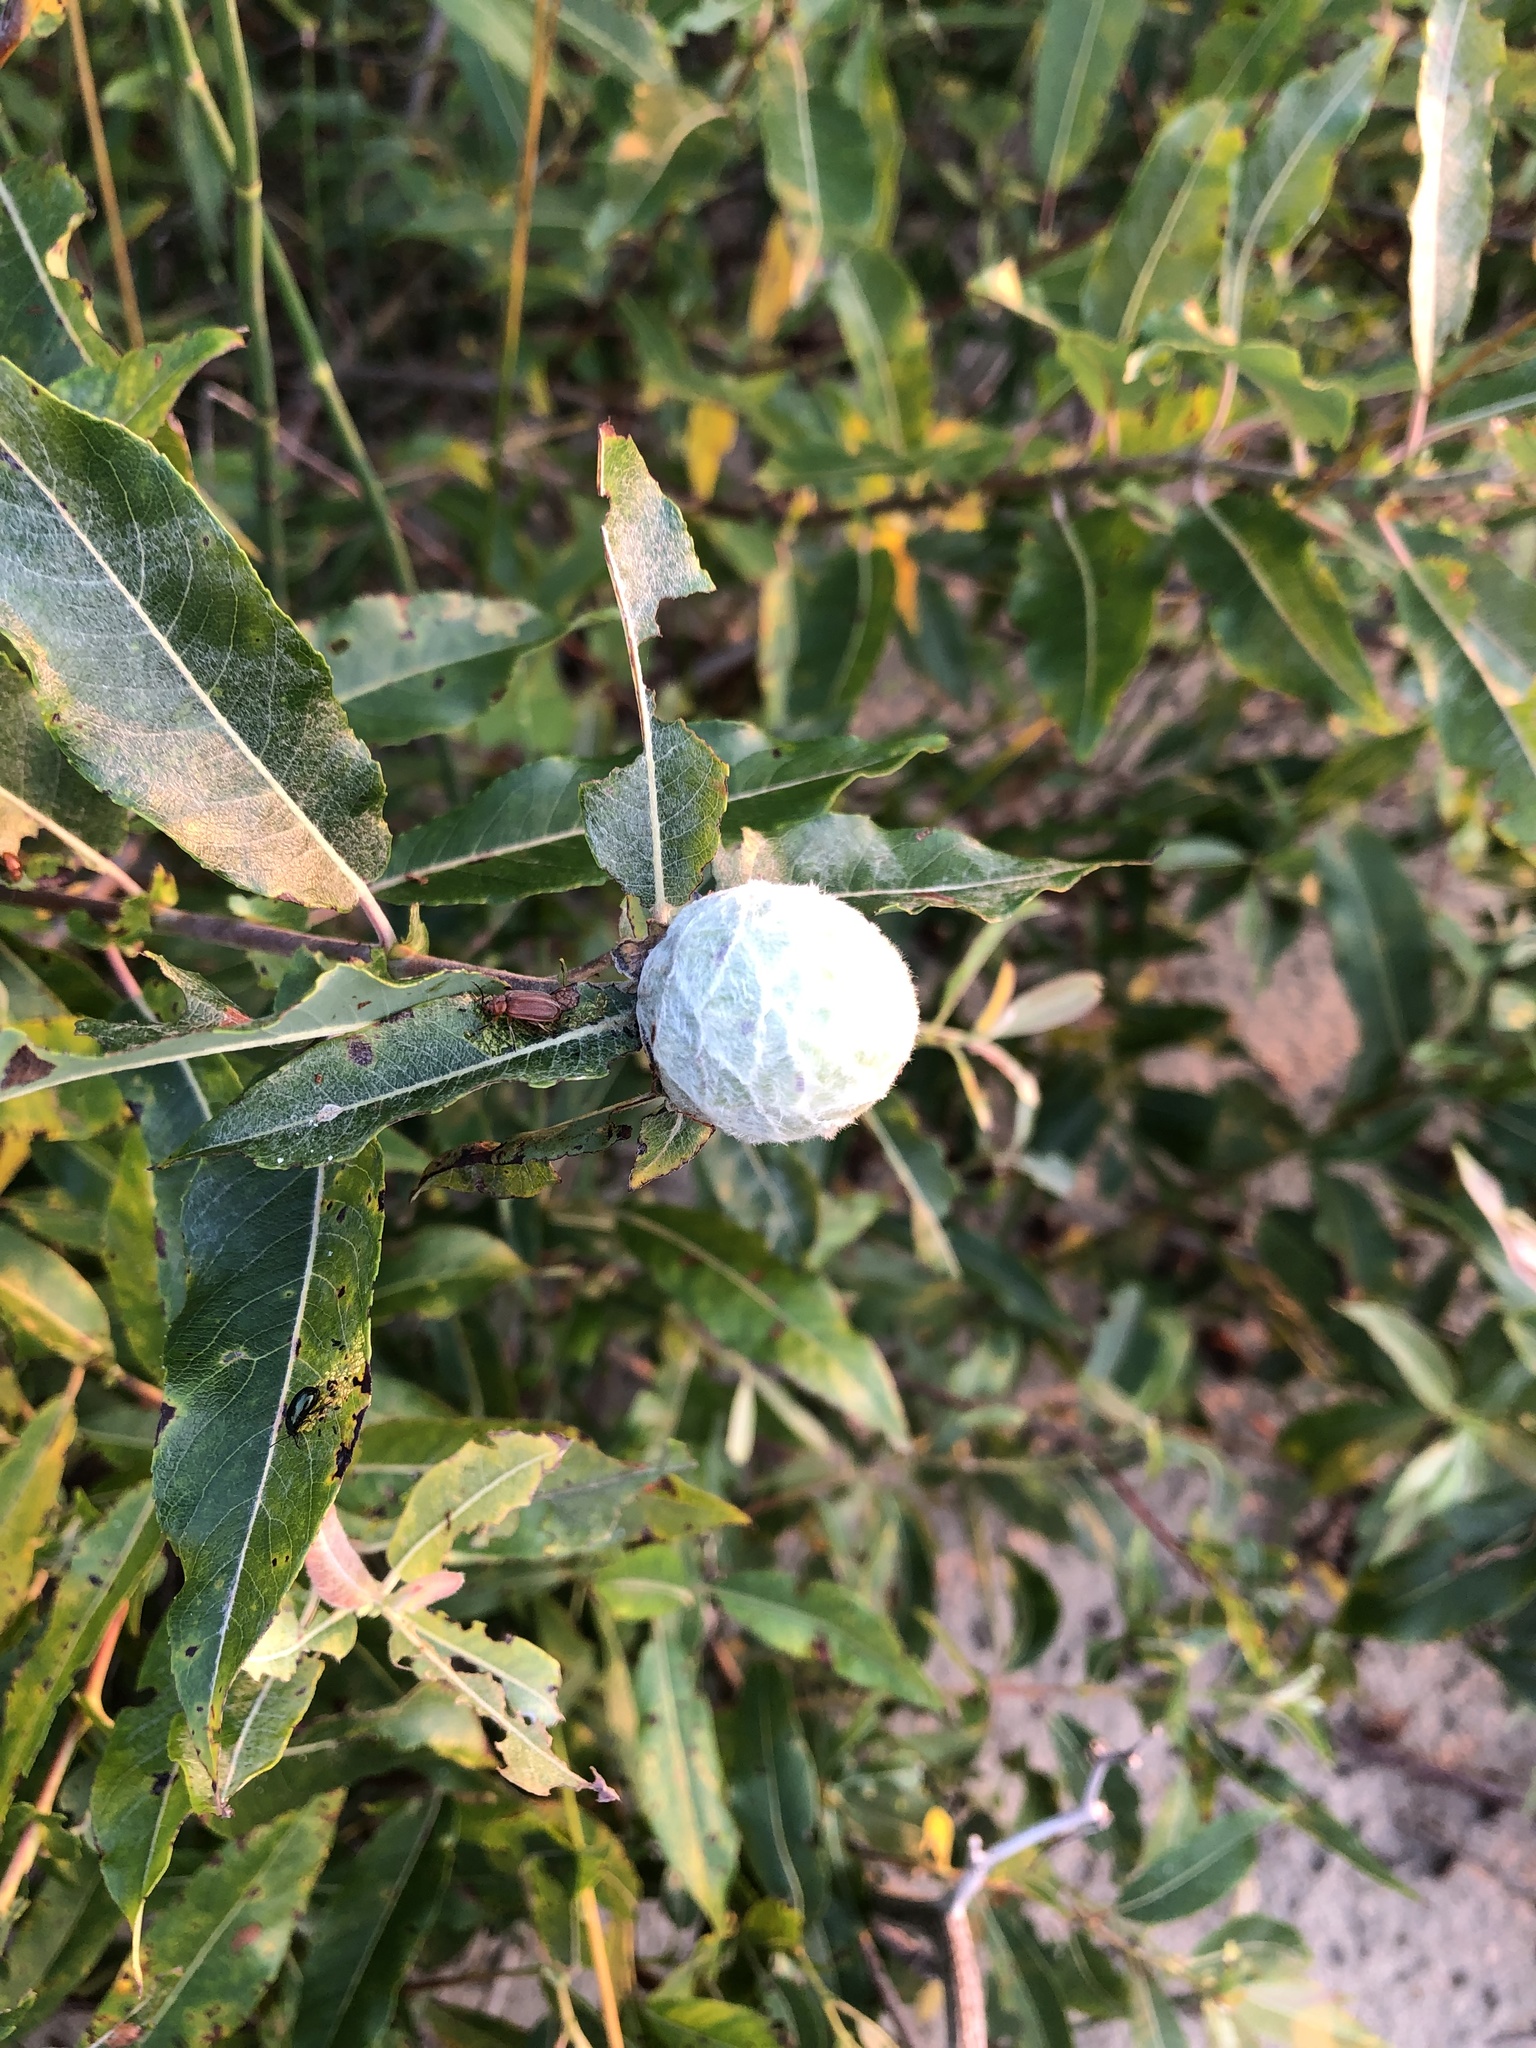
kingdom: Animalia
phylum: Arthropoda
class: Insecta
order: Diptera
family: Cecidomyiidae
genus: Rabdophaga
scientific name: Rabdophaga strobiloides
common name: Willow pinecone gall midge
